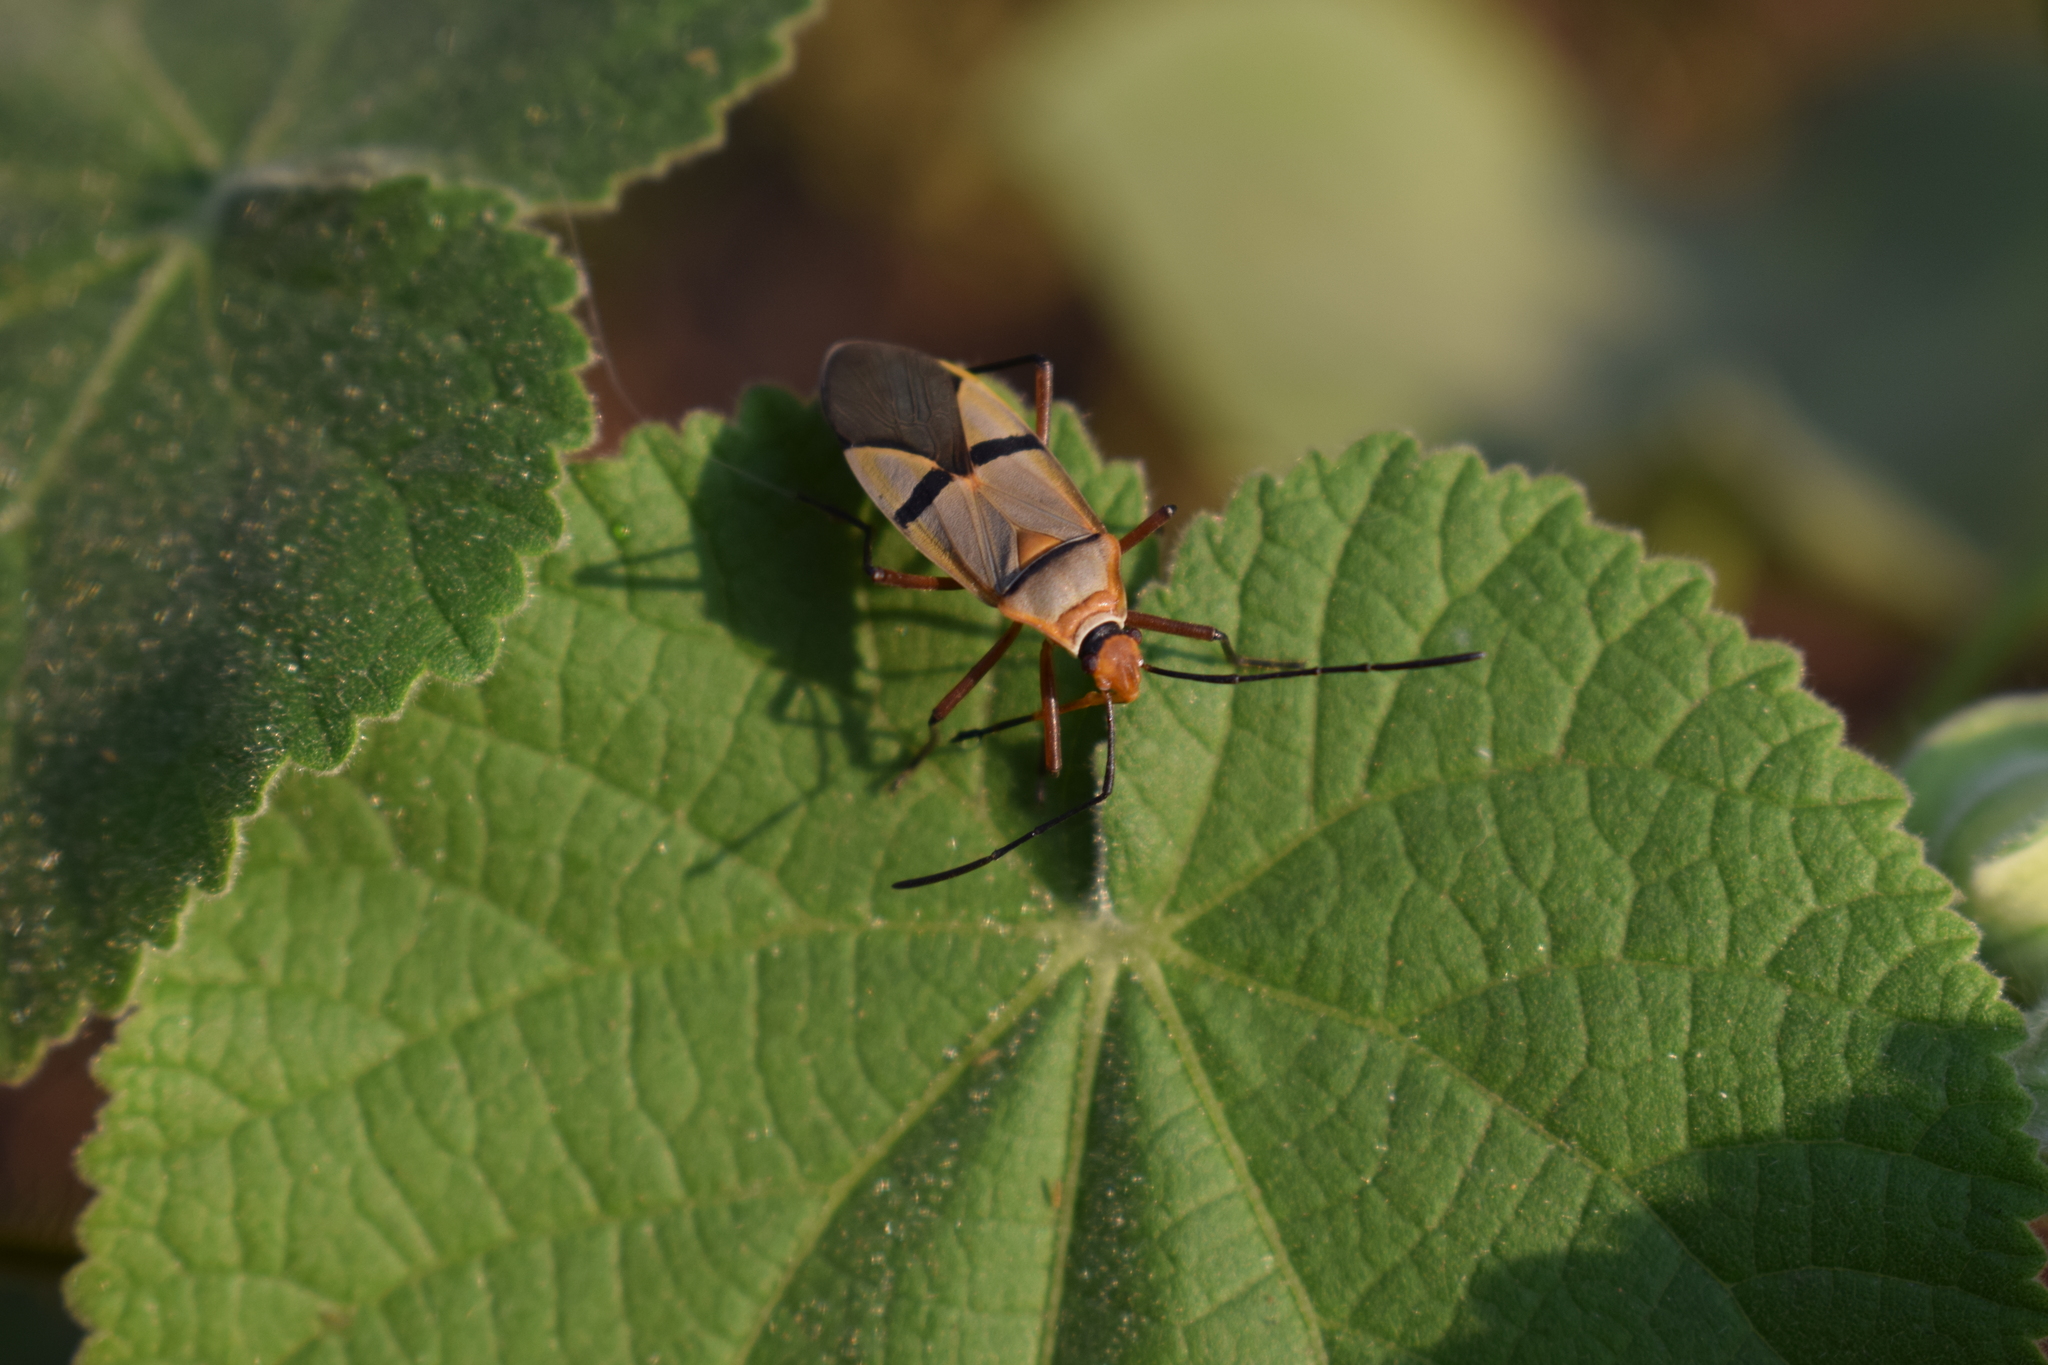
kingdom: Animalia
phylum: Arthropoda
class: Insecta
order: Hemiptera
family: Pyrrhocoridae
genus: Dysdercus
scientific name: Dysdercus
